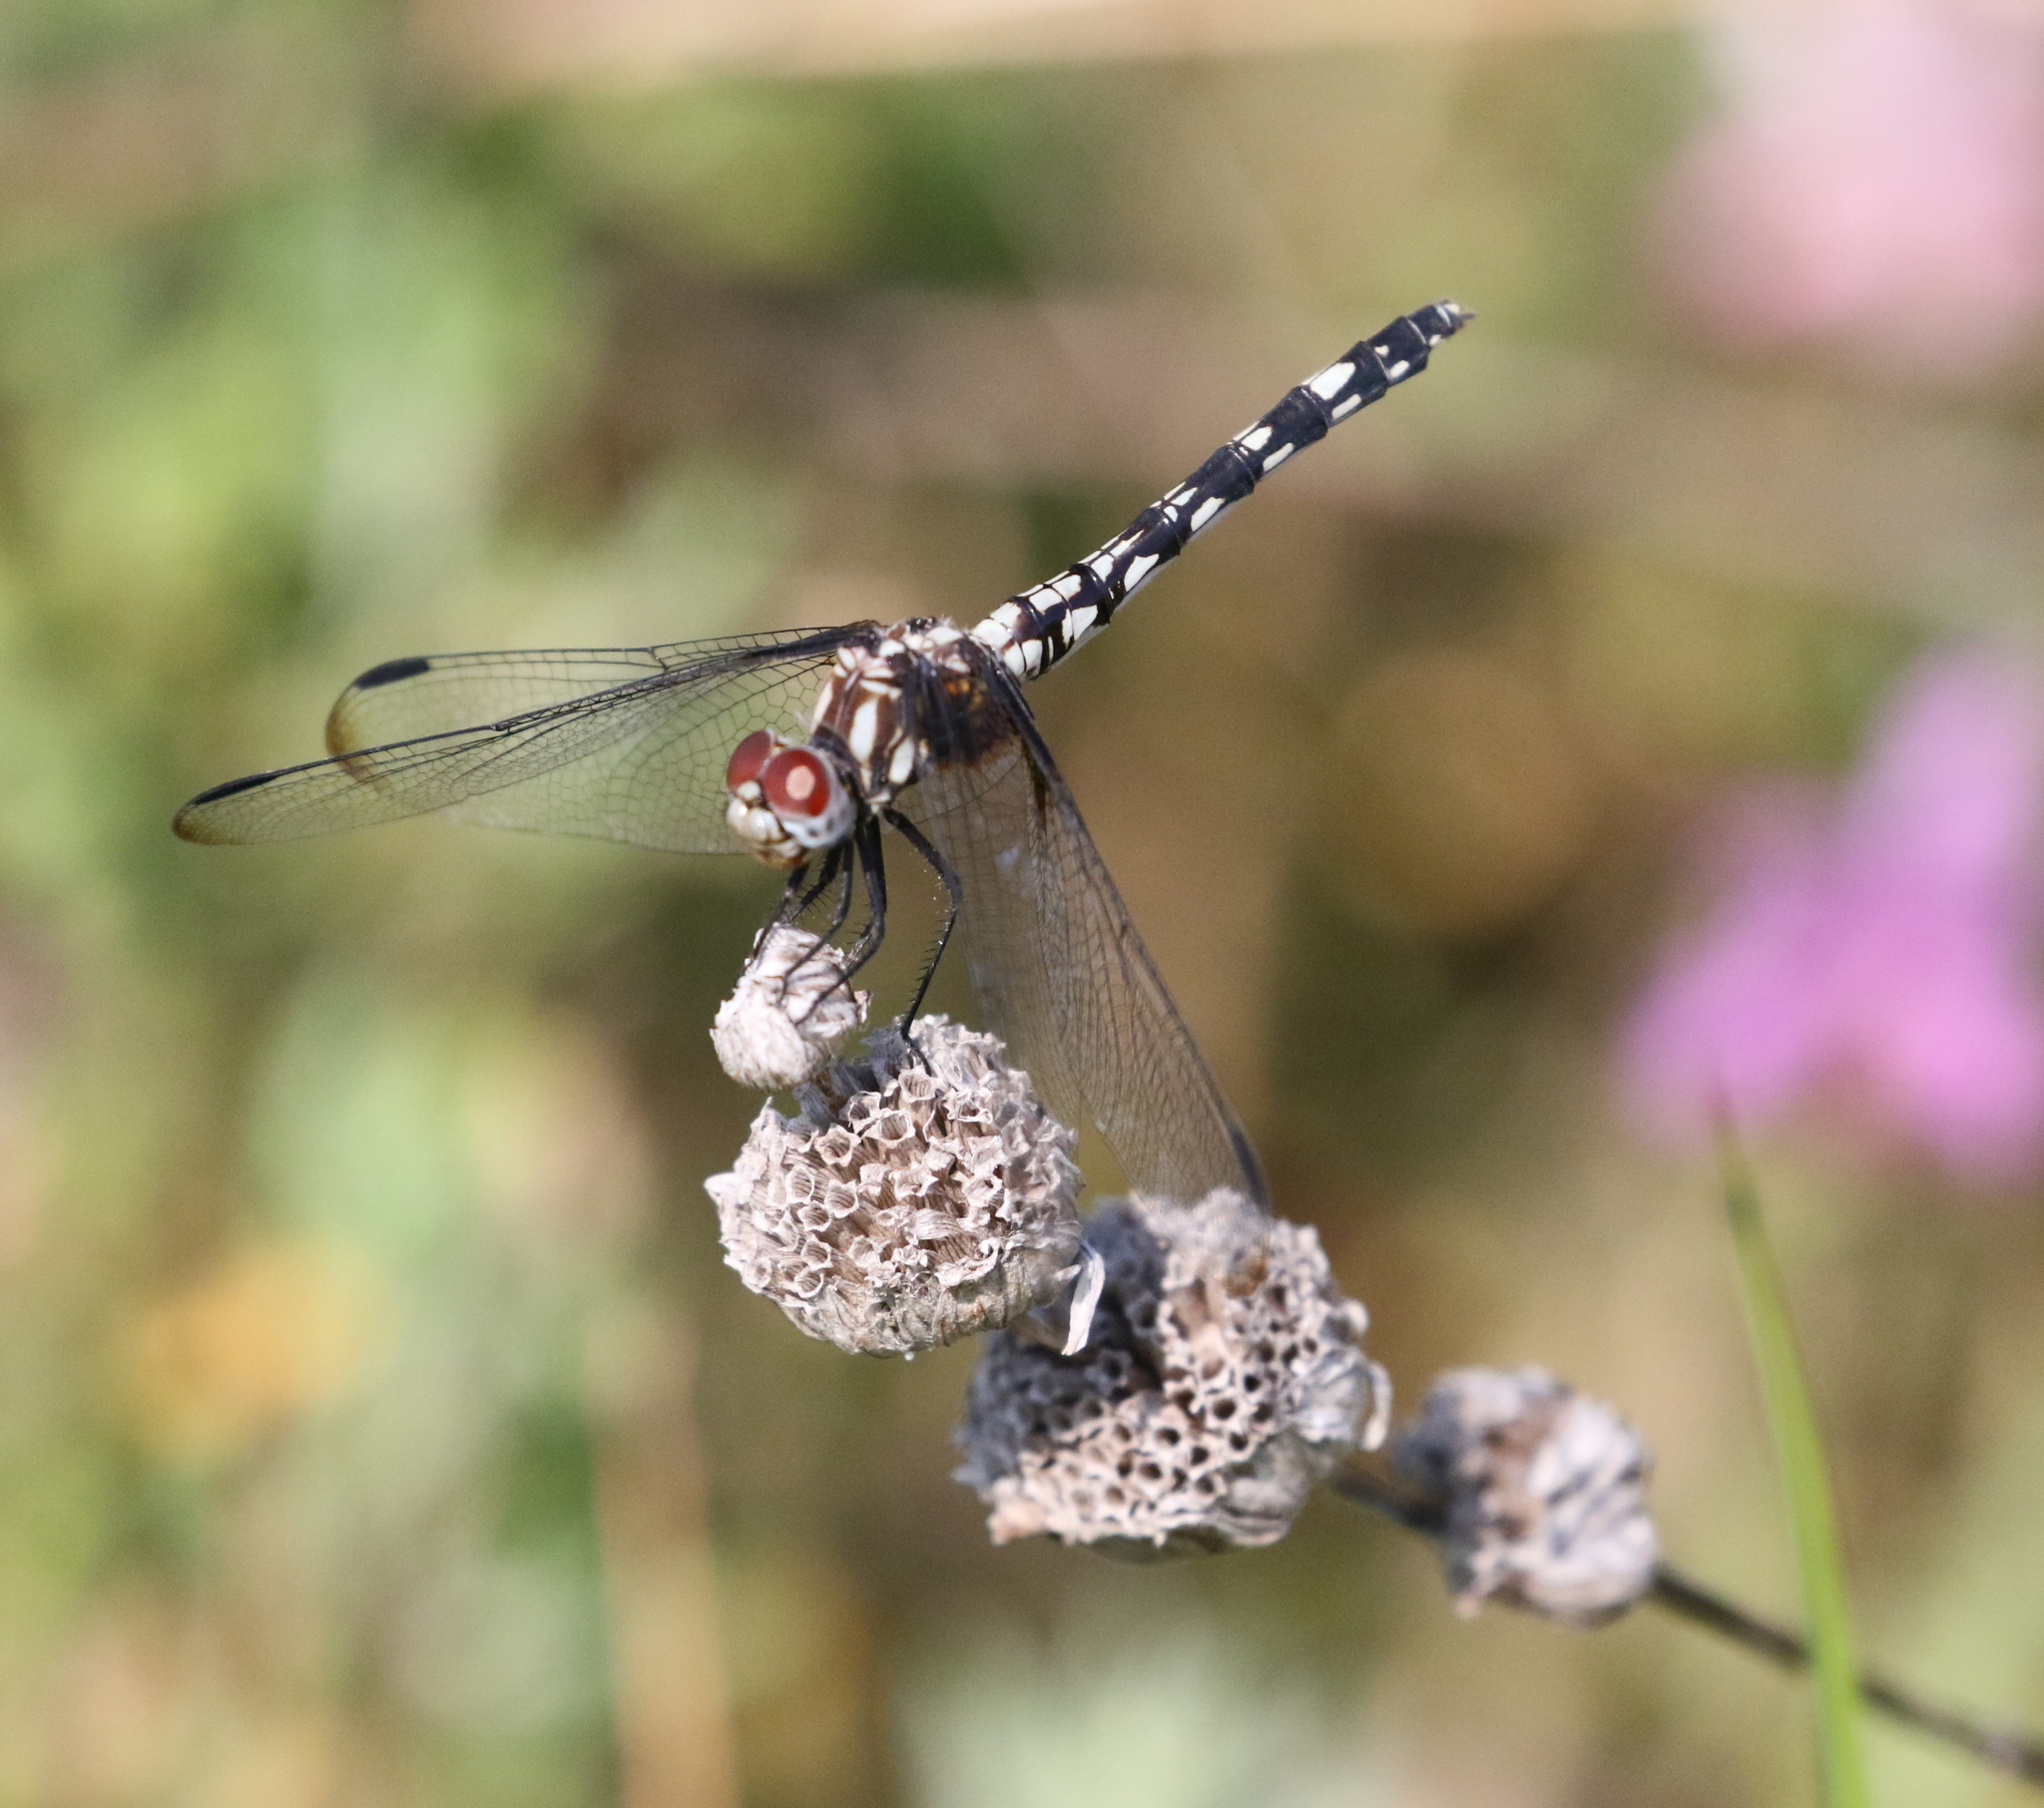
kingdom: Animalia
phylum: Arthropoda
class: Insecta
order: Odonata
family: Libellulidae
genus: Dythemis
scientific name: Dythemis fugax
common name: Checkered setwing
